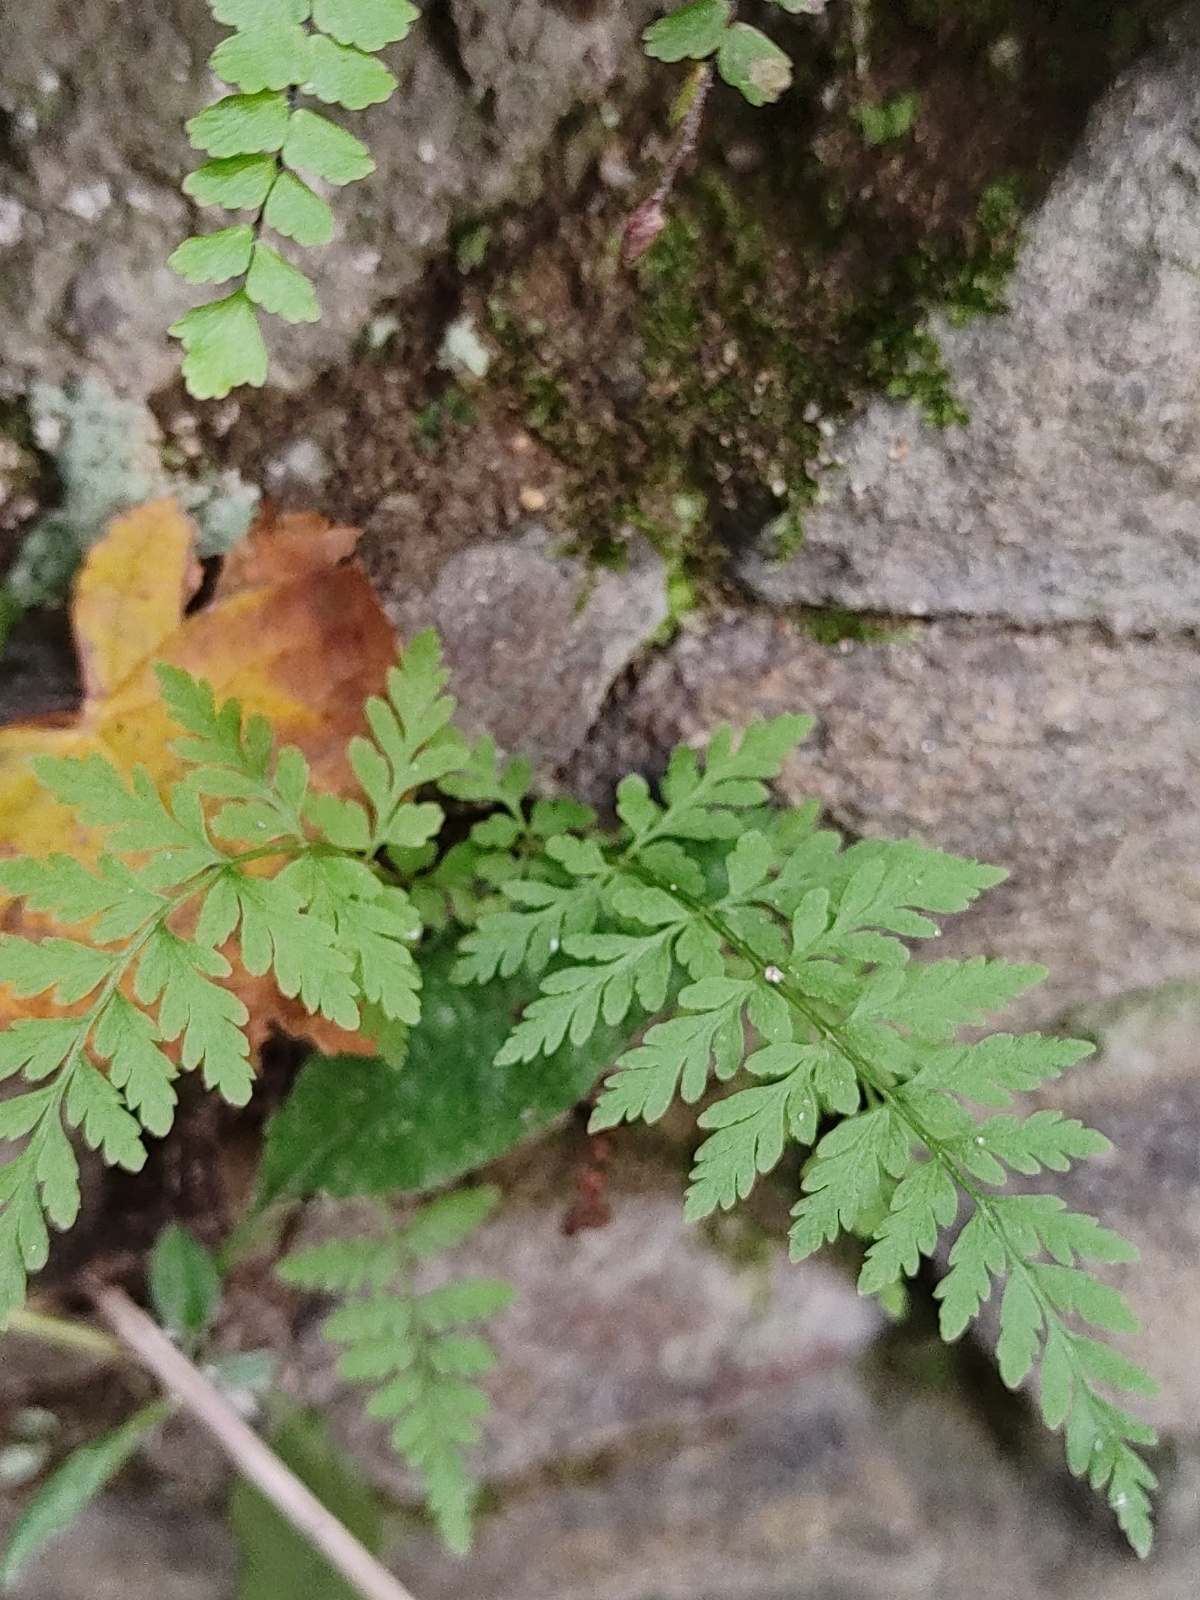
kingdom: Plantae
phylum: Tracheophyta
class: Polypodiopsida
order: Polypodiales
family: Cystopteridaceae
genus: Cystopteris
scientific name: Cystopteris fragilis
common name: Brittle bladder fern
